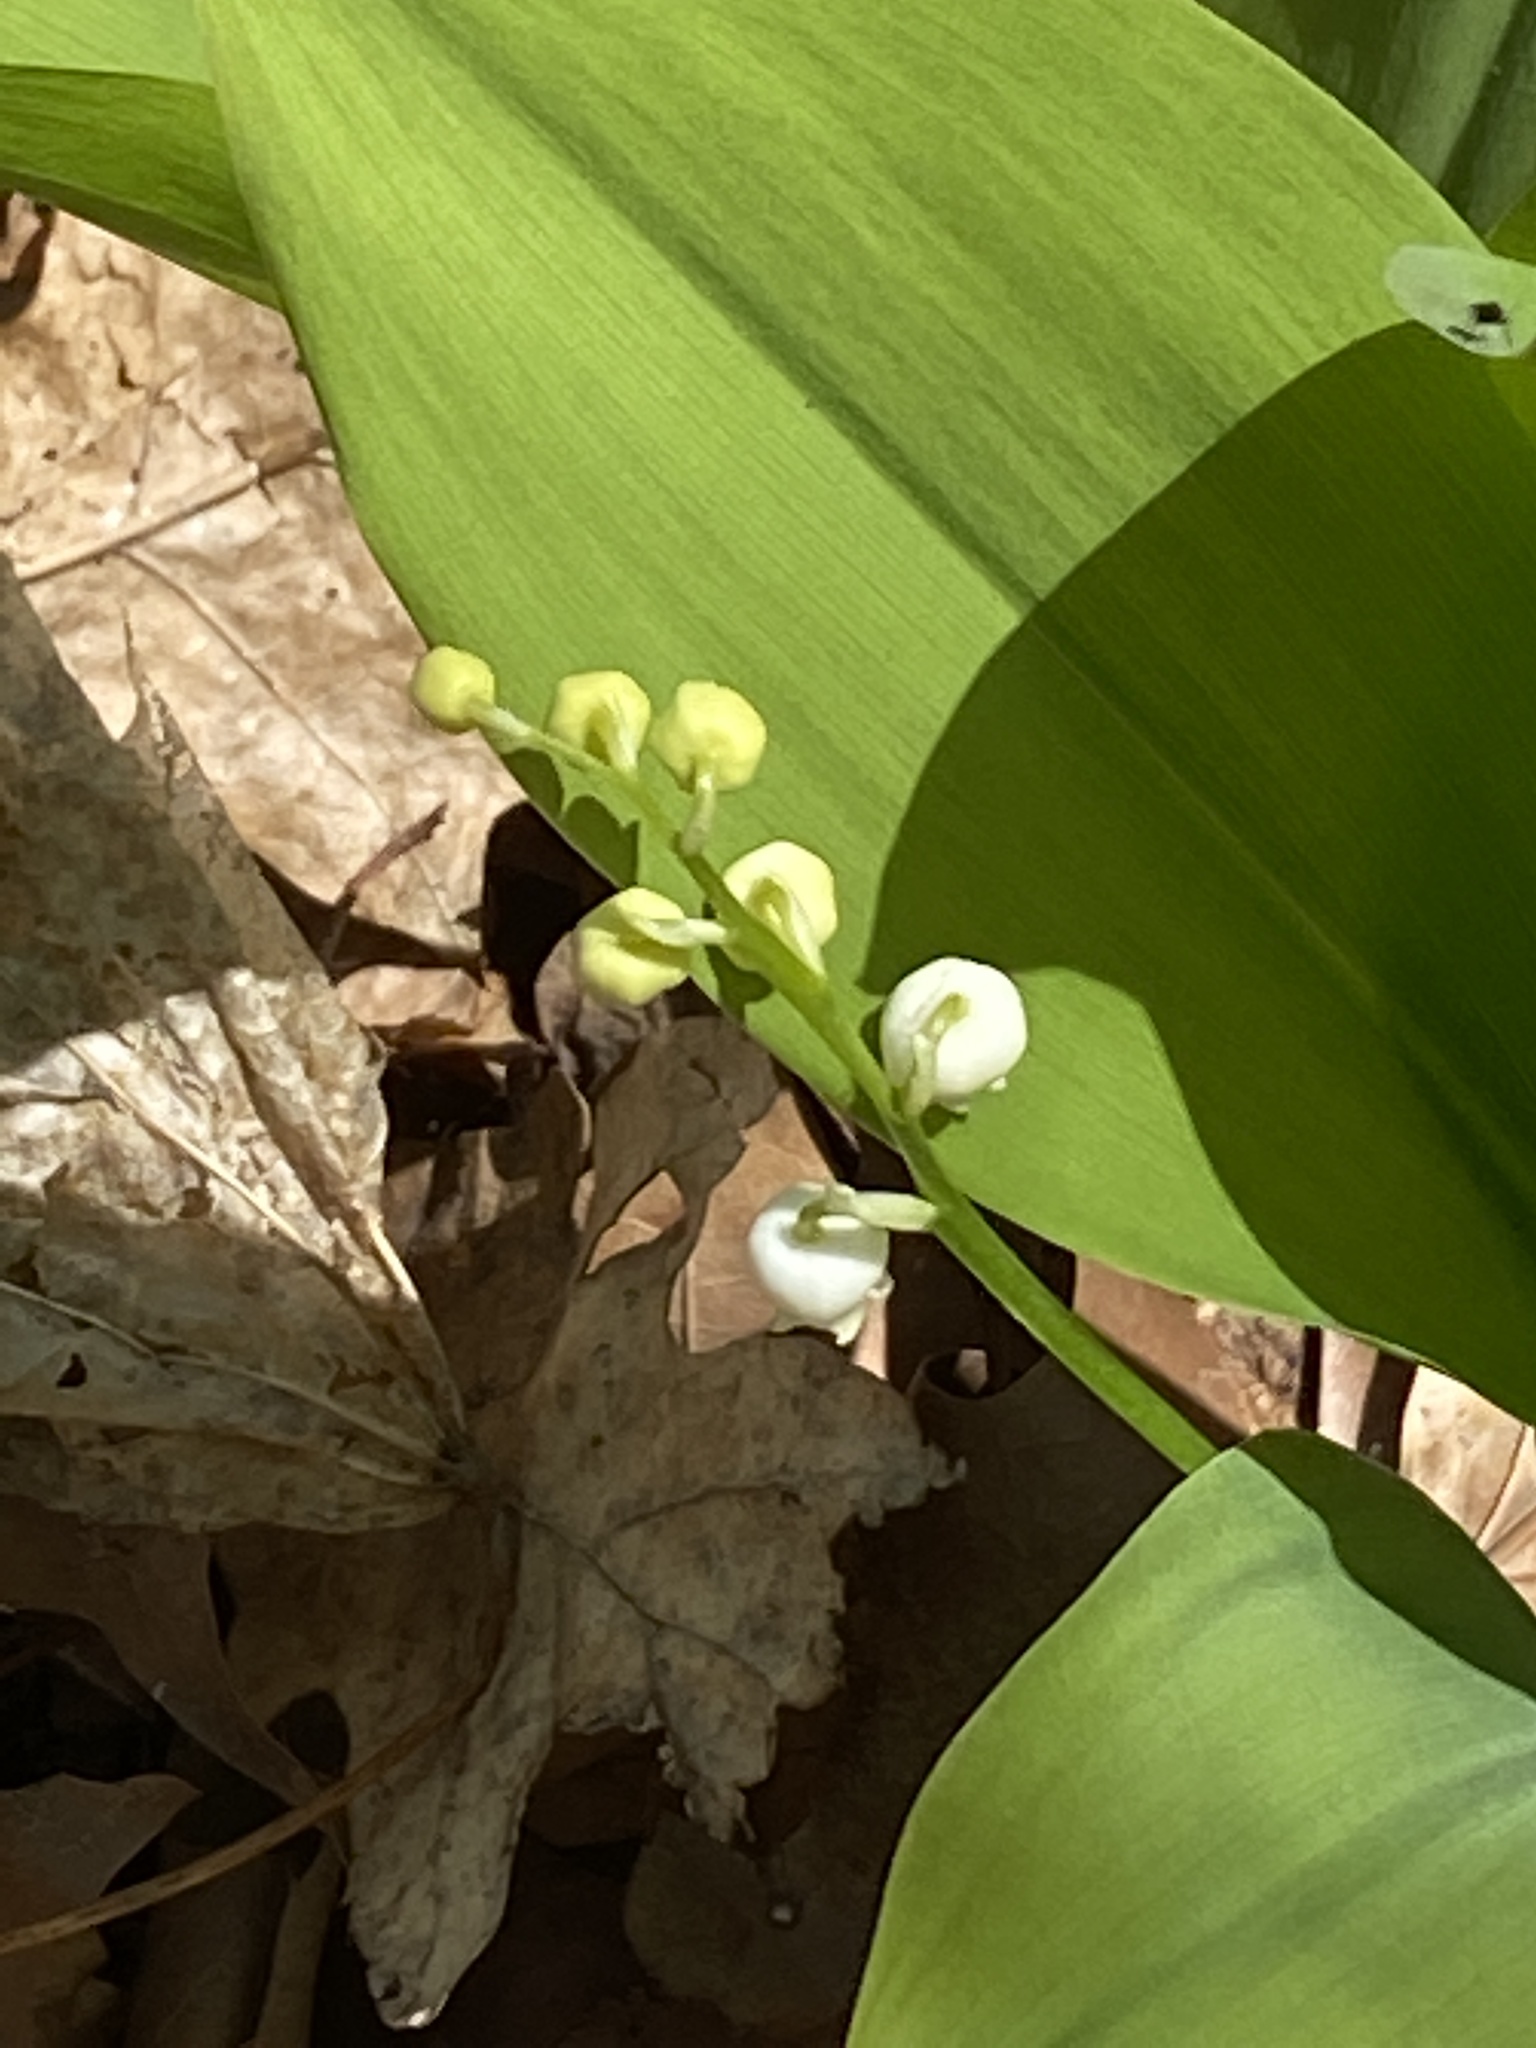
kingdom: Plantae
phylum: Tracheophyta
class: Liliopsida
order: Asparagales
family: Asparagaceae
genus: Convallaria
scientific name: Convallaria majalis
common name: Lily-of-the-valley
